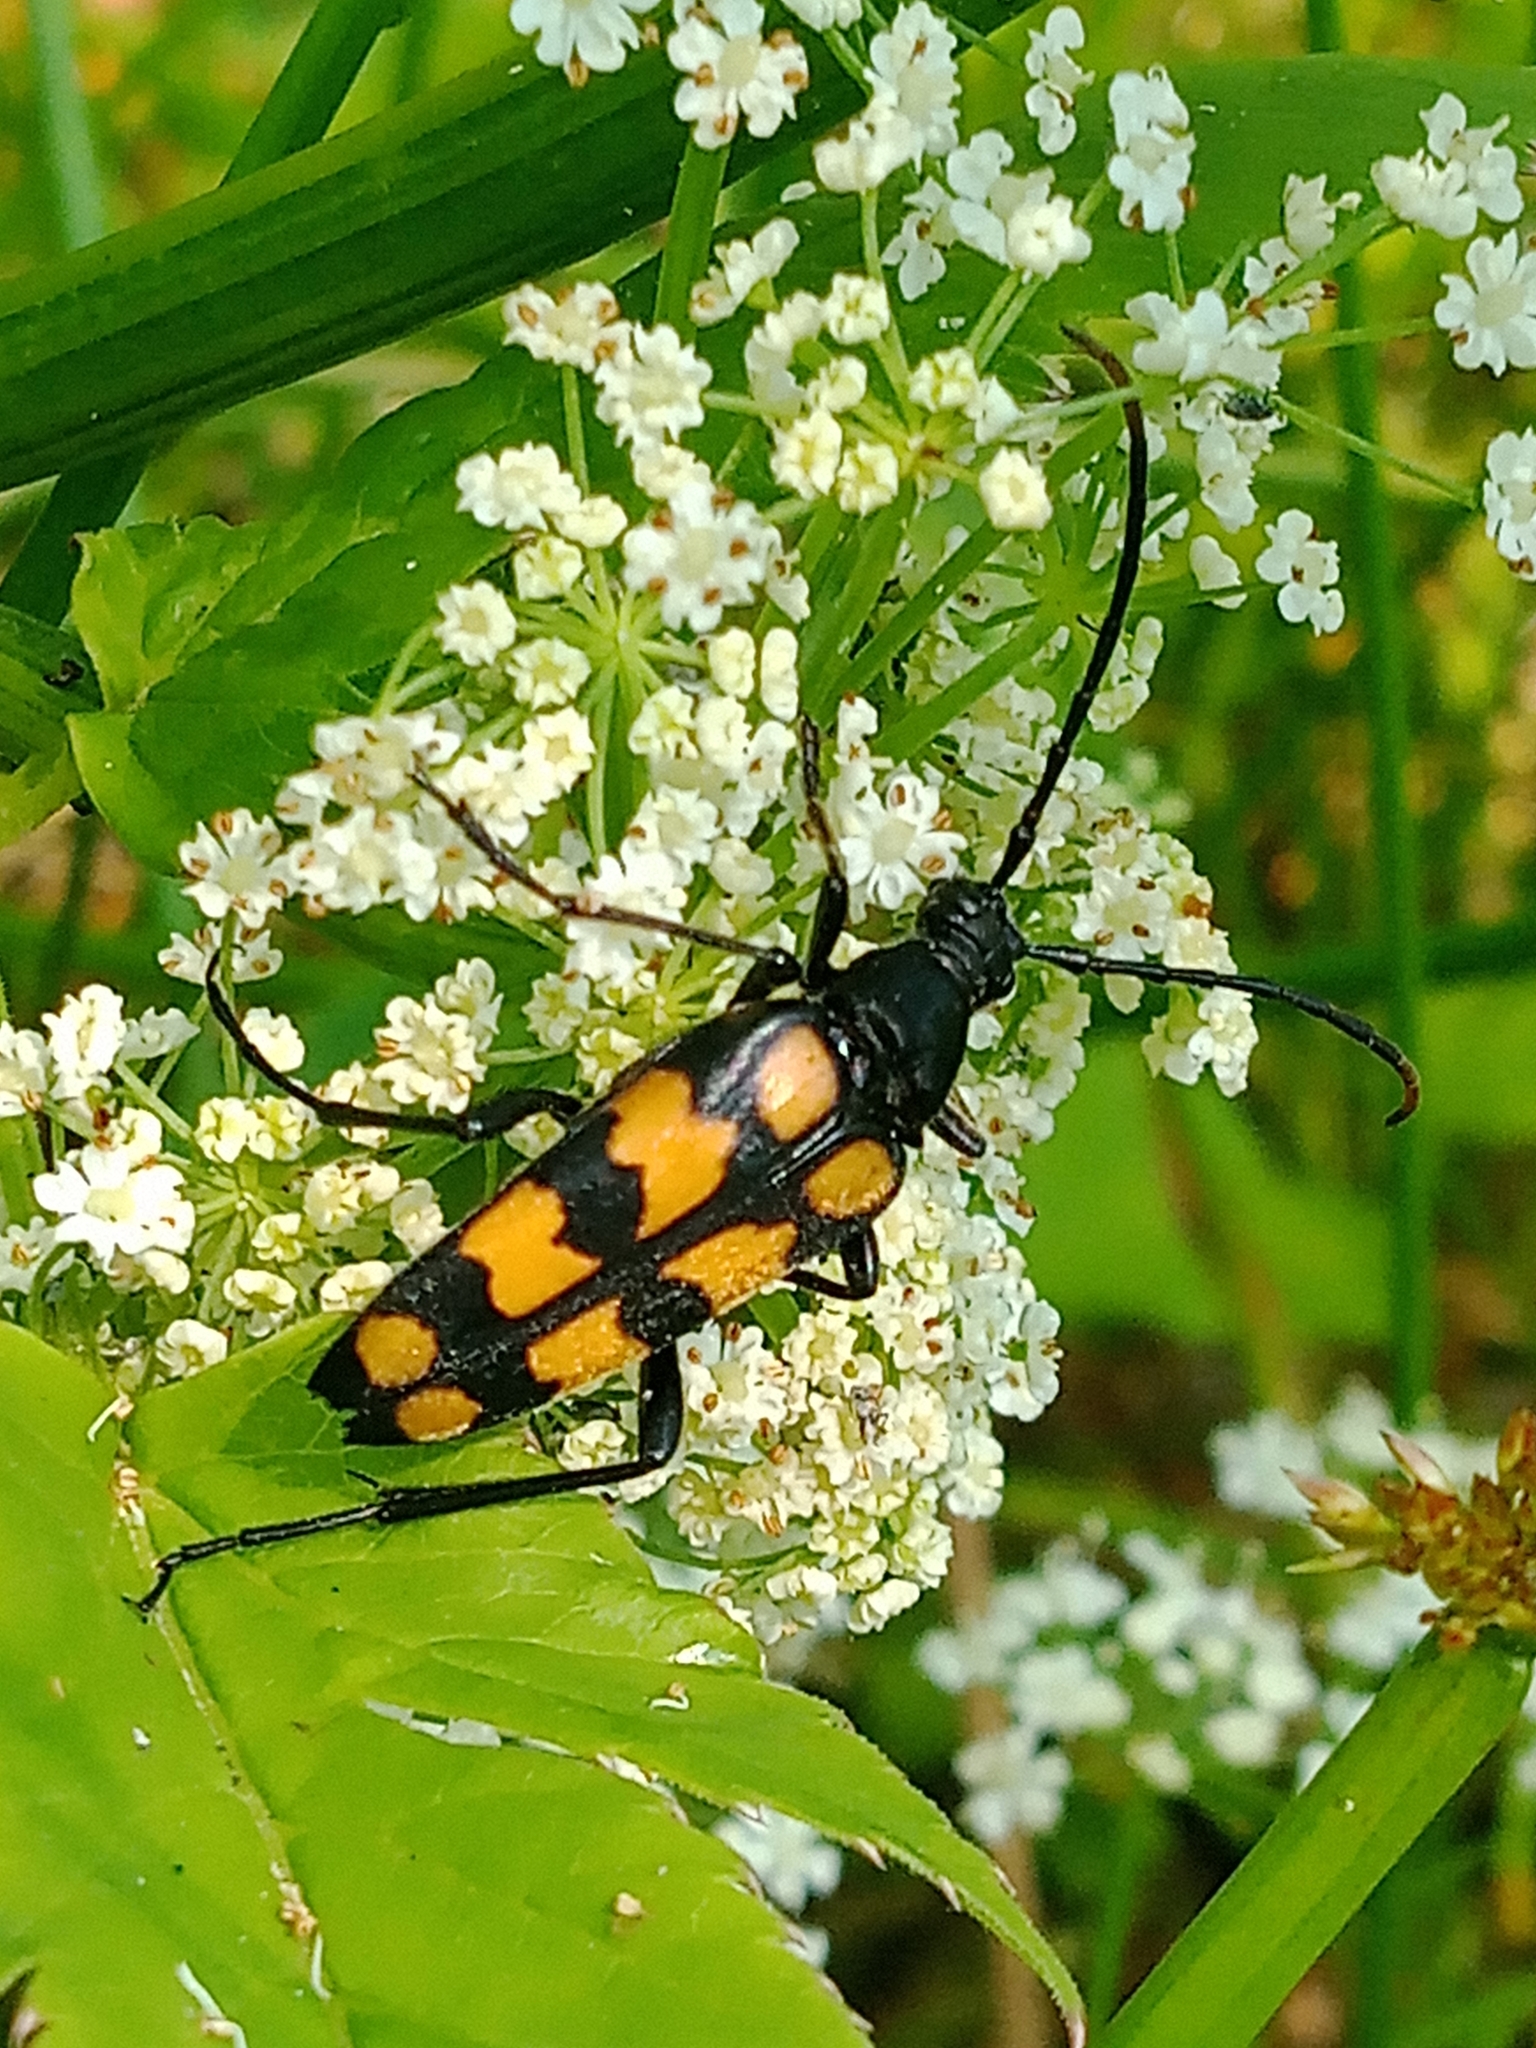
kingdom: Animalia
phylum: Arthropoda
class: Insecta
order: Coleoptera
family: Cerambycidae
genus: Leptura
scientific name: Leptura quadrifasciata
